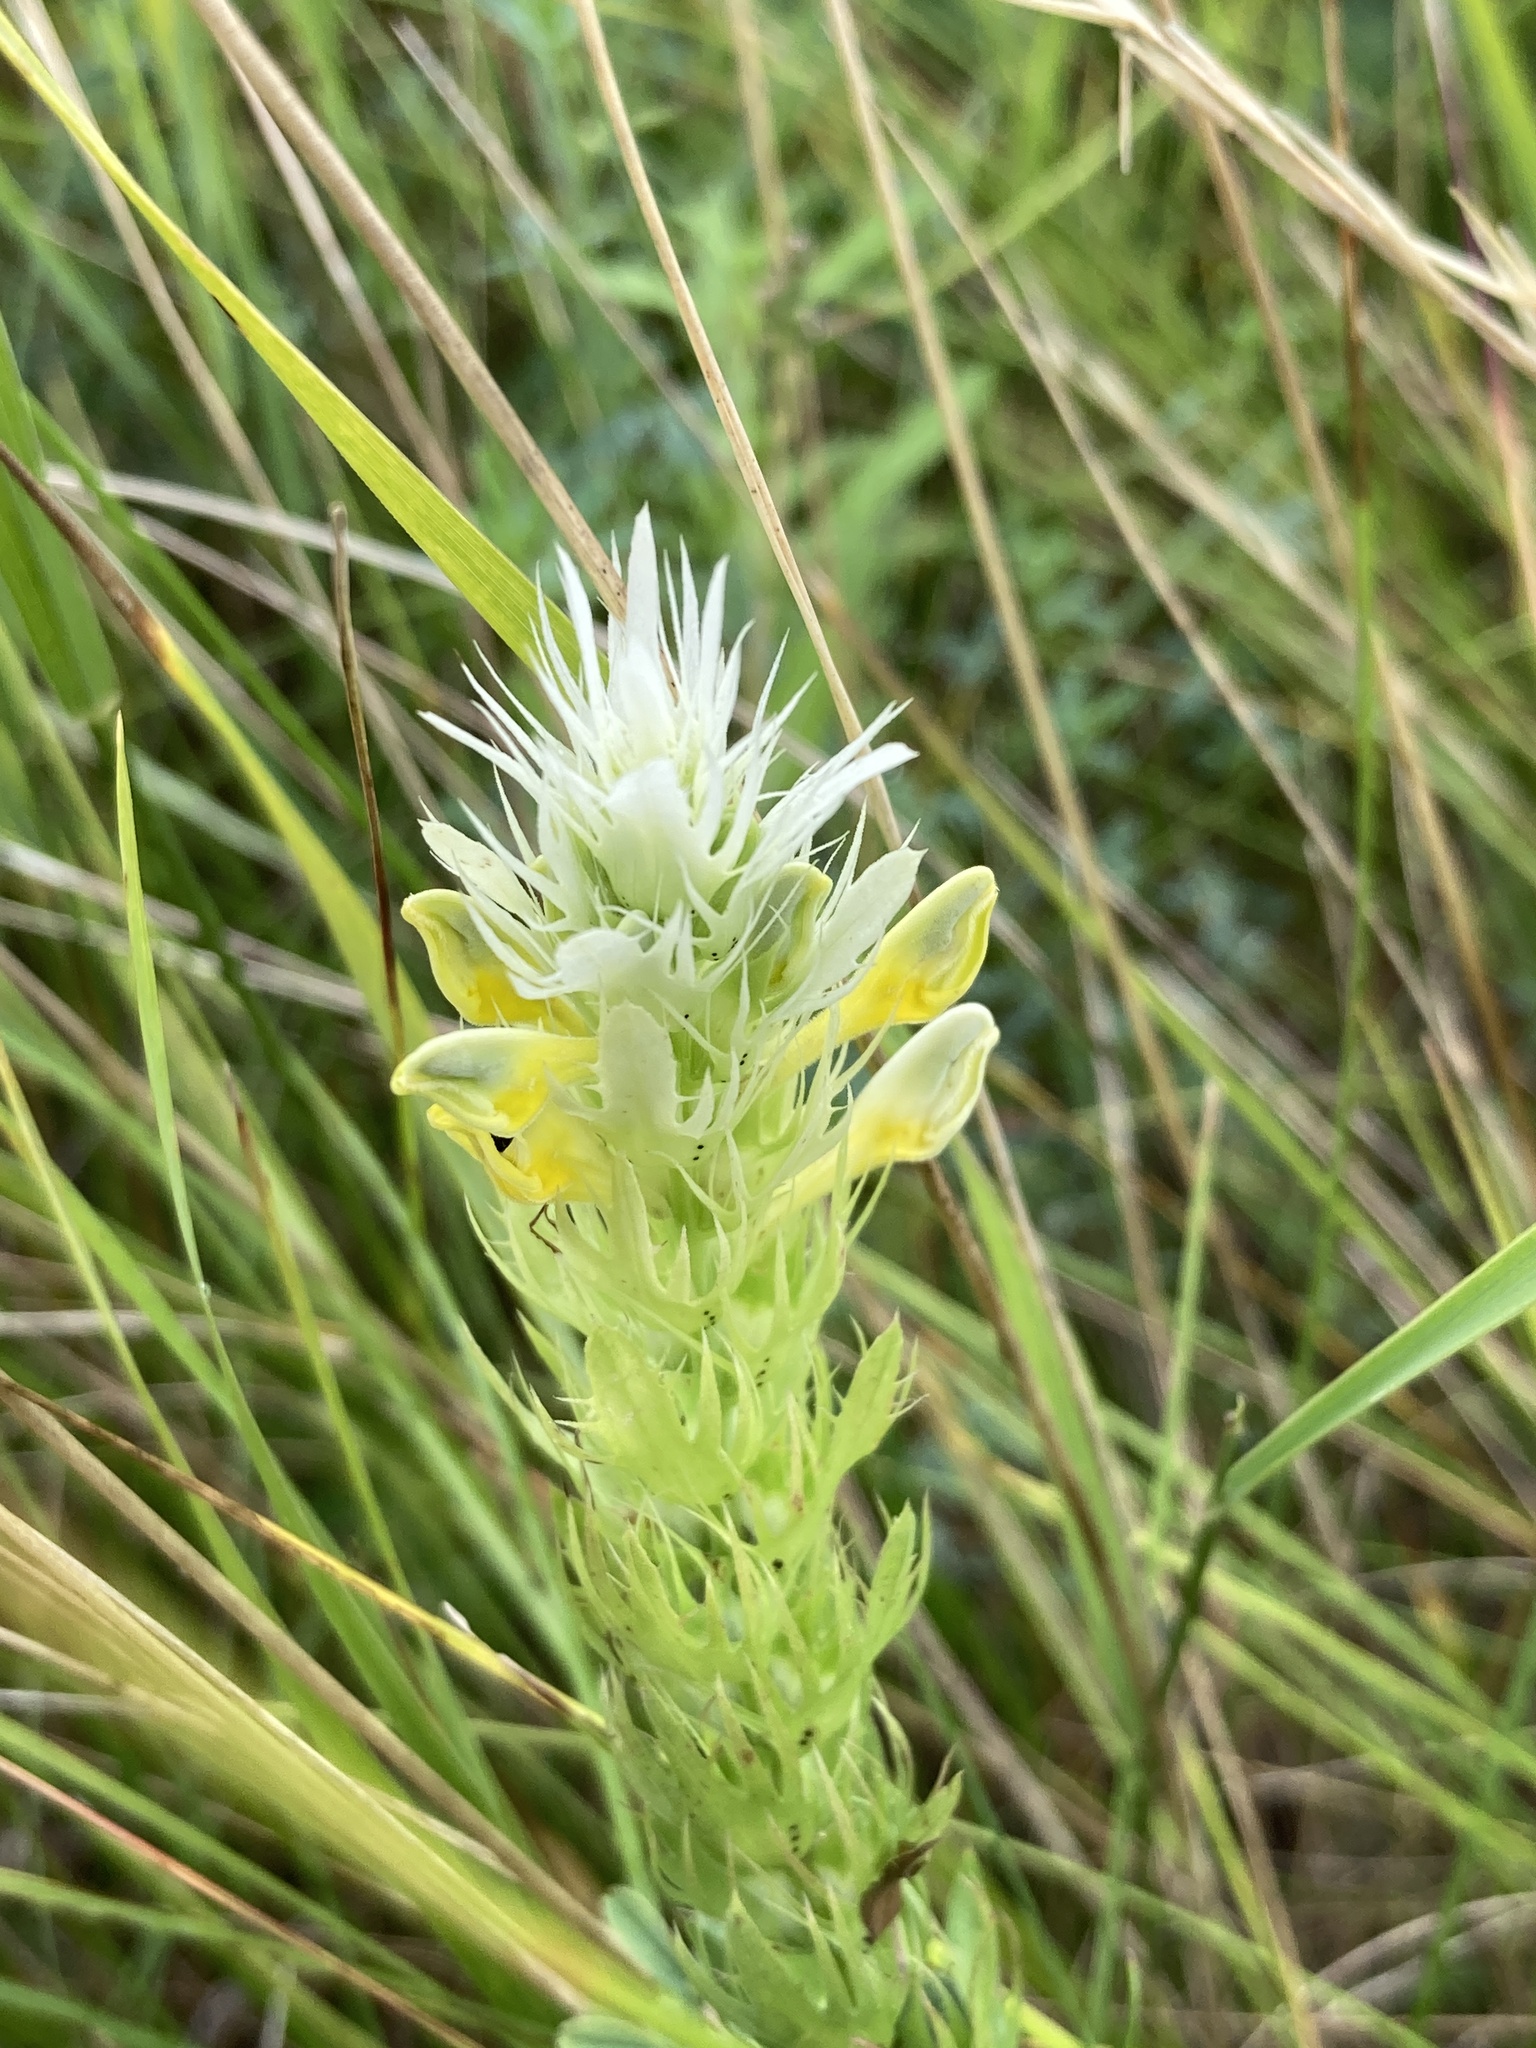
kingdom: Plantae
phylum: Tracheophyta
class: Magnoliopsida
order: Lamiales
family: Orobanchaceae
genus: Melampyrum
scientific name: Melampyrum arvense
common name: Field cow-wheat
